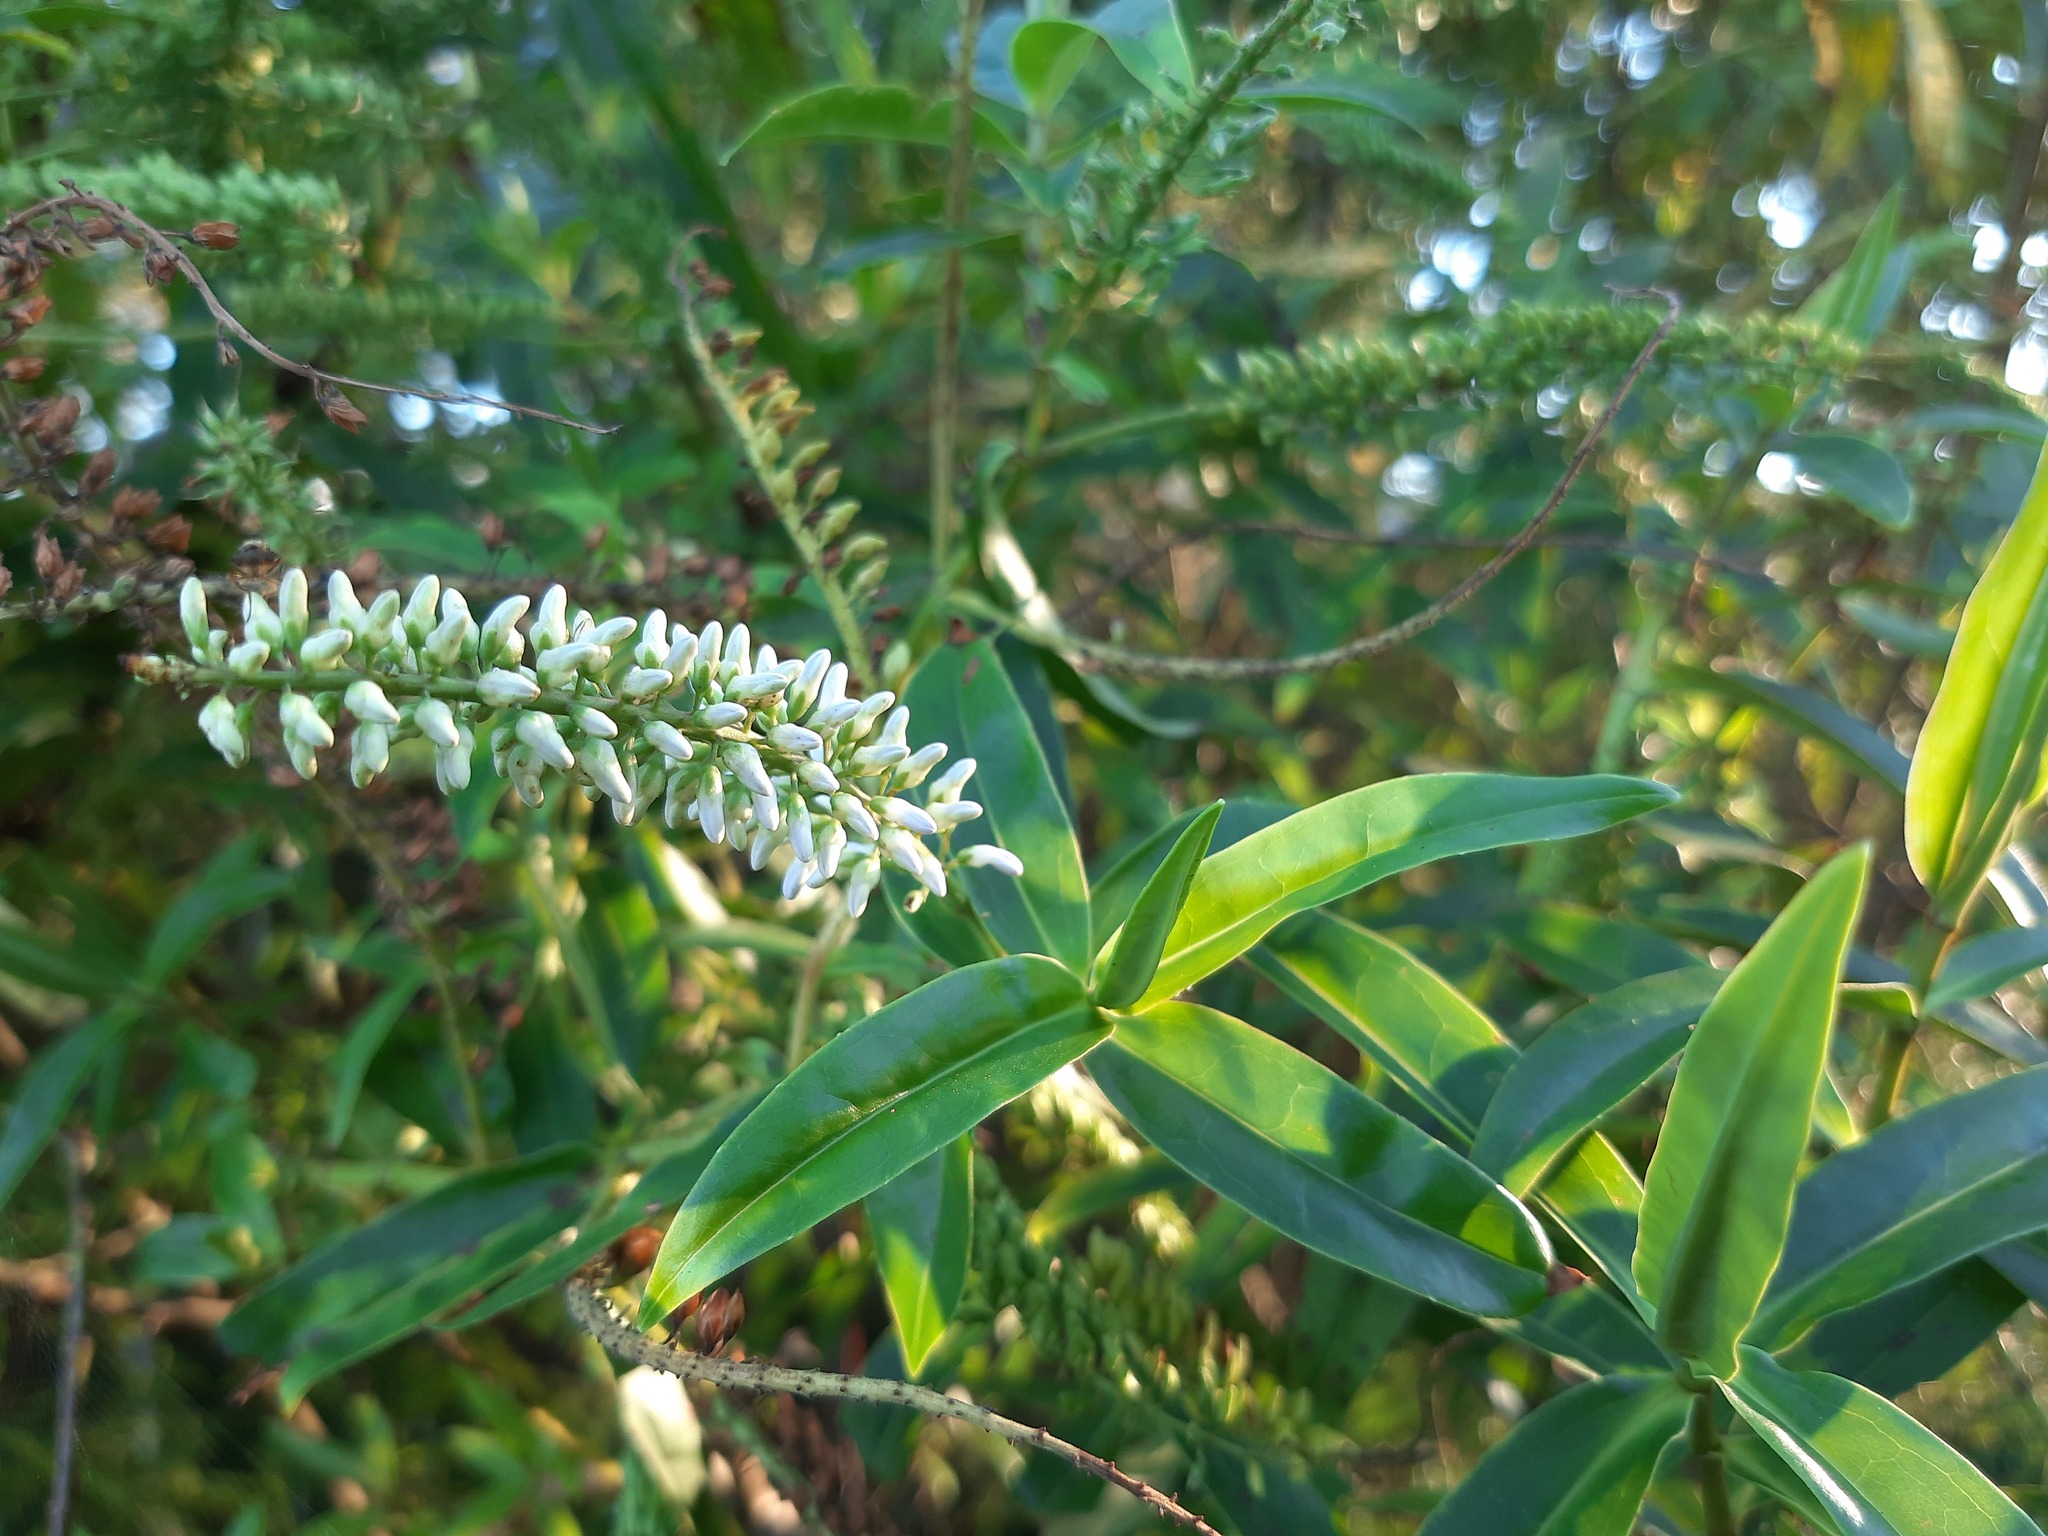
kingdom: Plantae
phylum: Tracheophyta
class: Magnoliopsida
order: Lamiales
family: Plantaginaceae
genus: Veronica
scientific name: Veronica stricta
